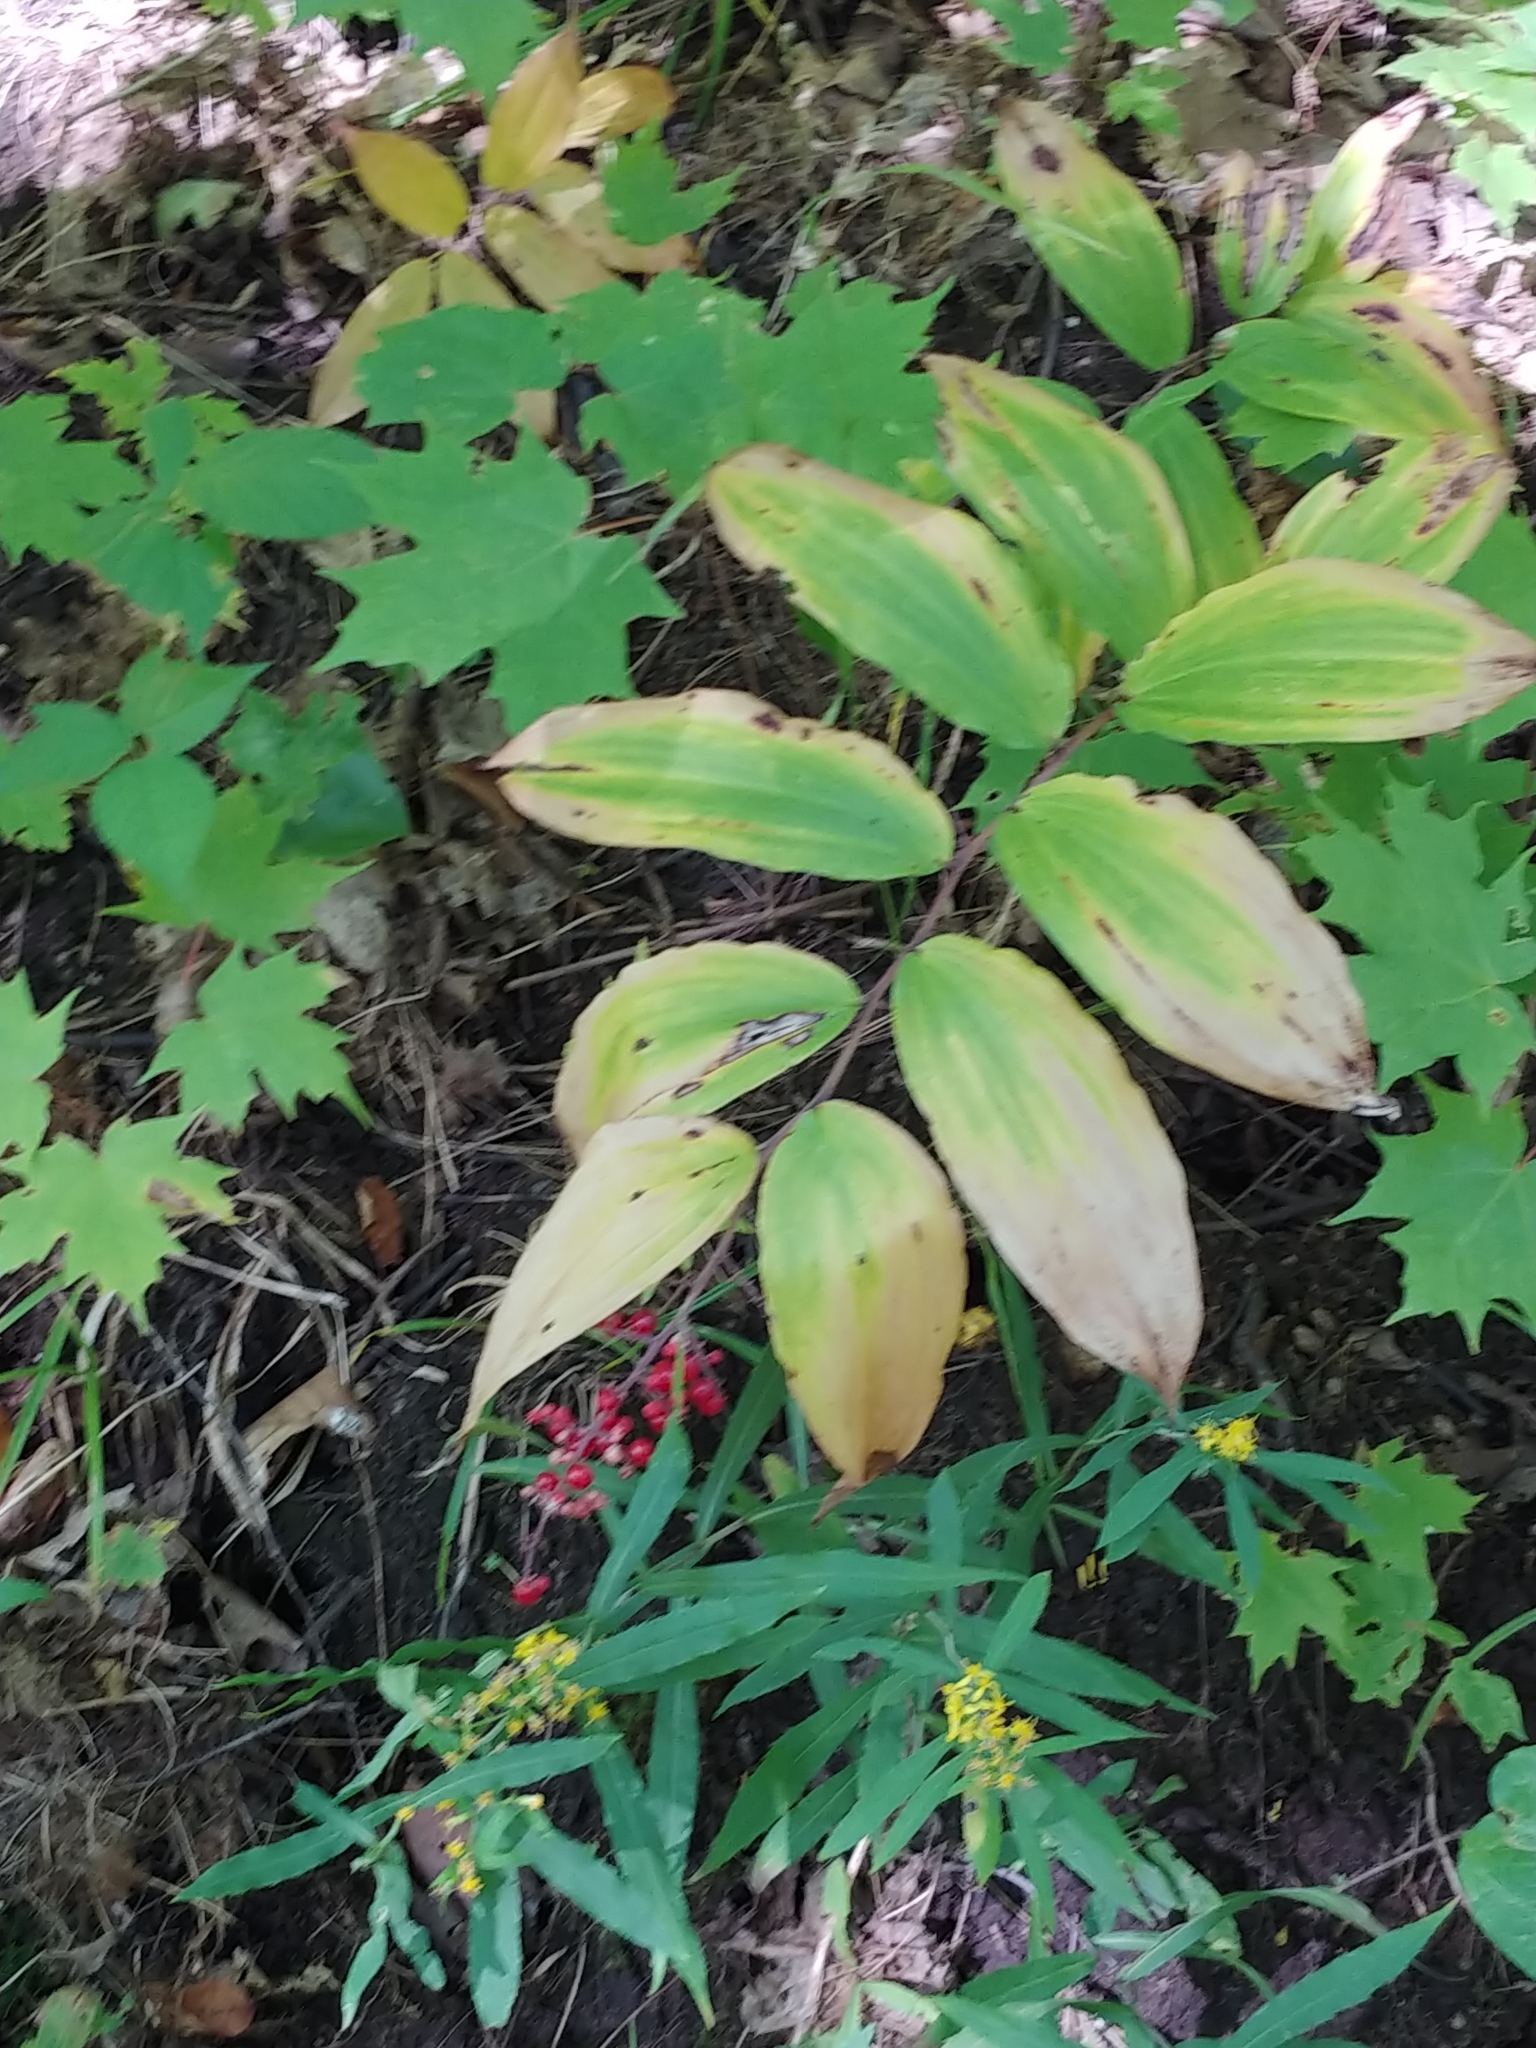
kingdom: Plantae
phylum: Tracheophyta
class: Liliopsida
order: Asparagales
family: Asparagaceae
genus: Maianthemum
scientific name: Maianthemum racemosum
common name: False spikenard
